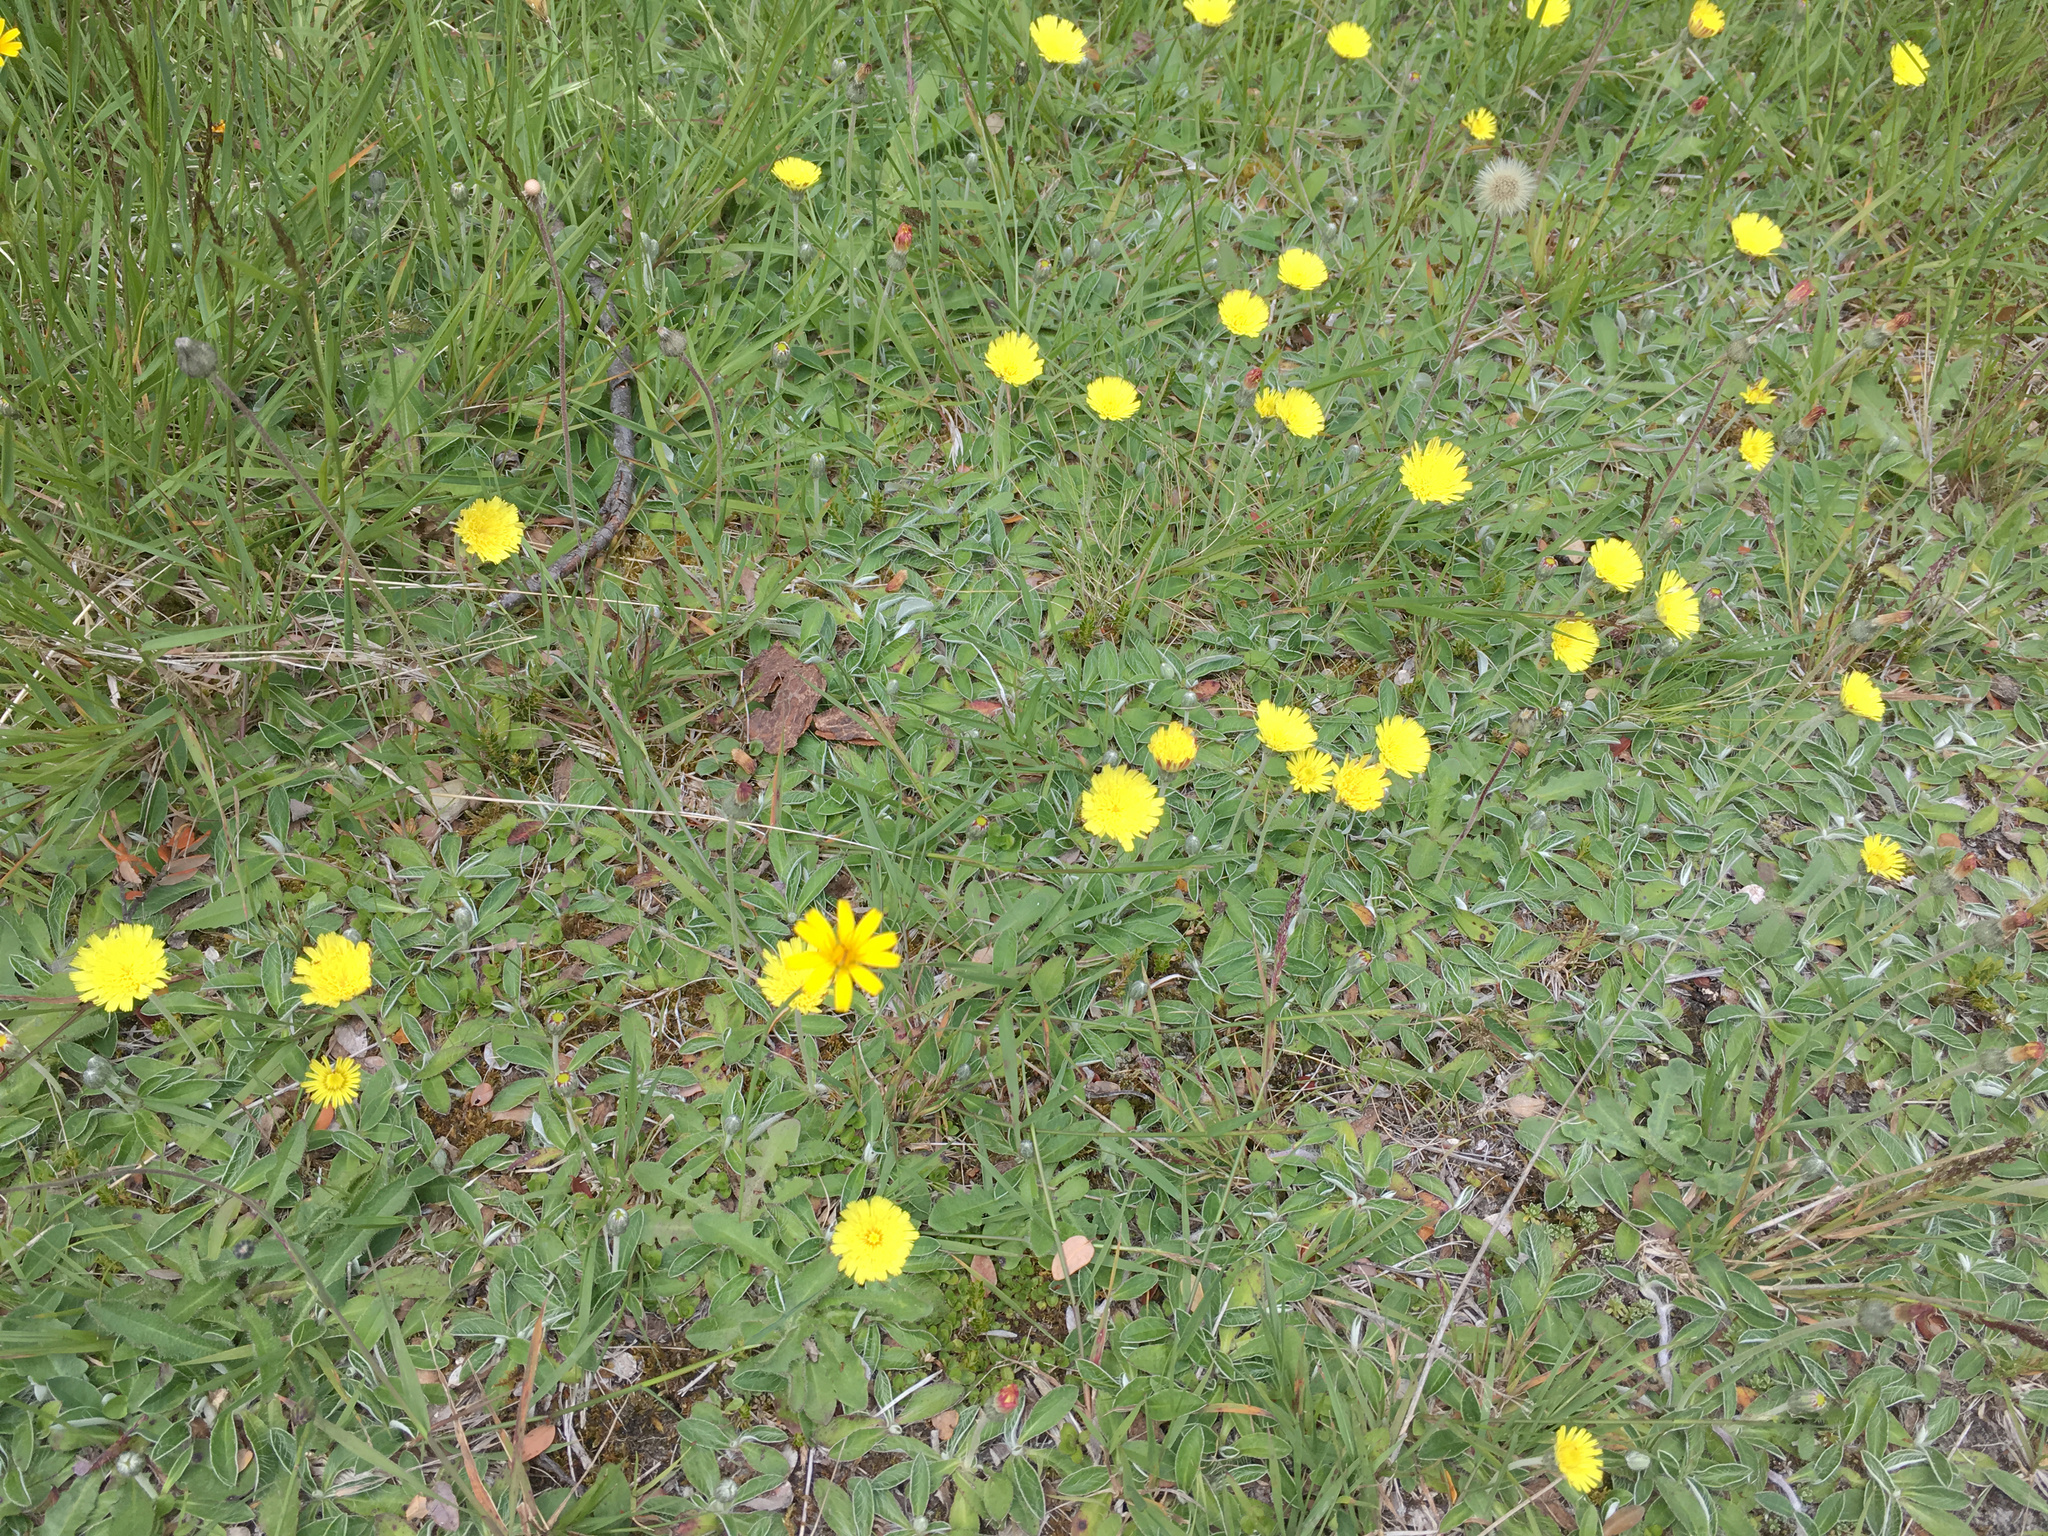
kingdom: Plantae
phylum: Tracheophyta
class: Magnoliopsida
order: Asterales
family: Asteraceae
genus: Pilosella
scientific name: Pilosella officinarum
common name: Mouse-ear hawkweed
